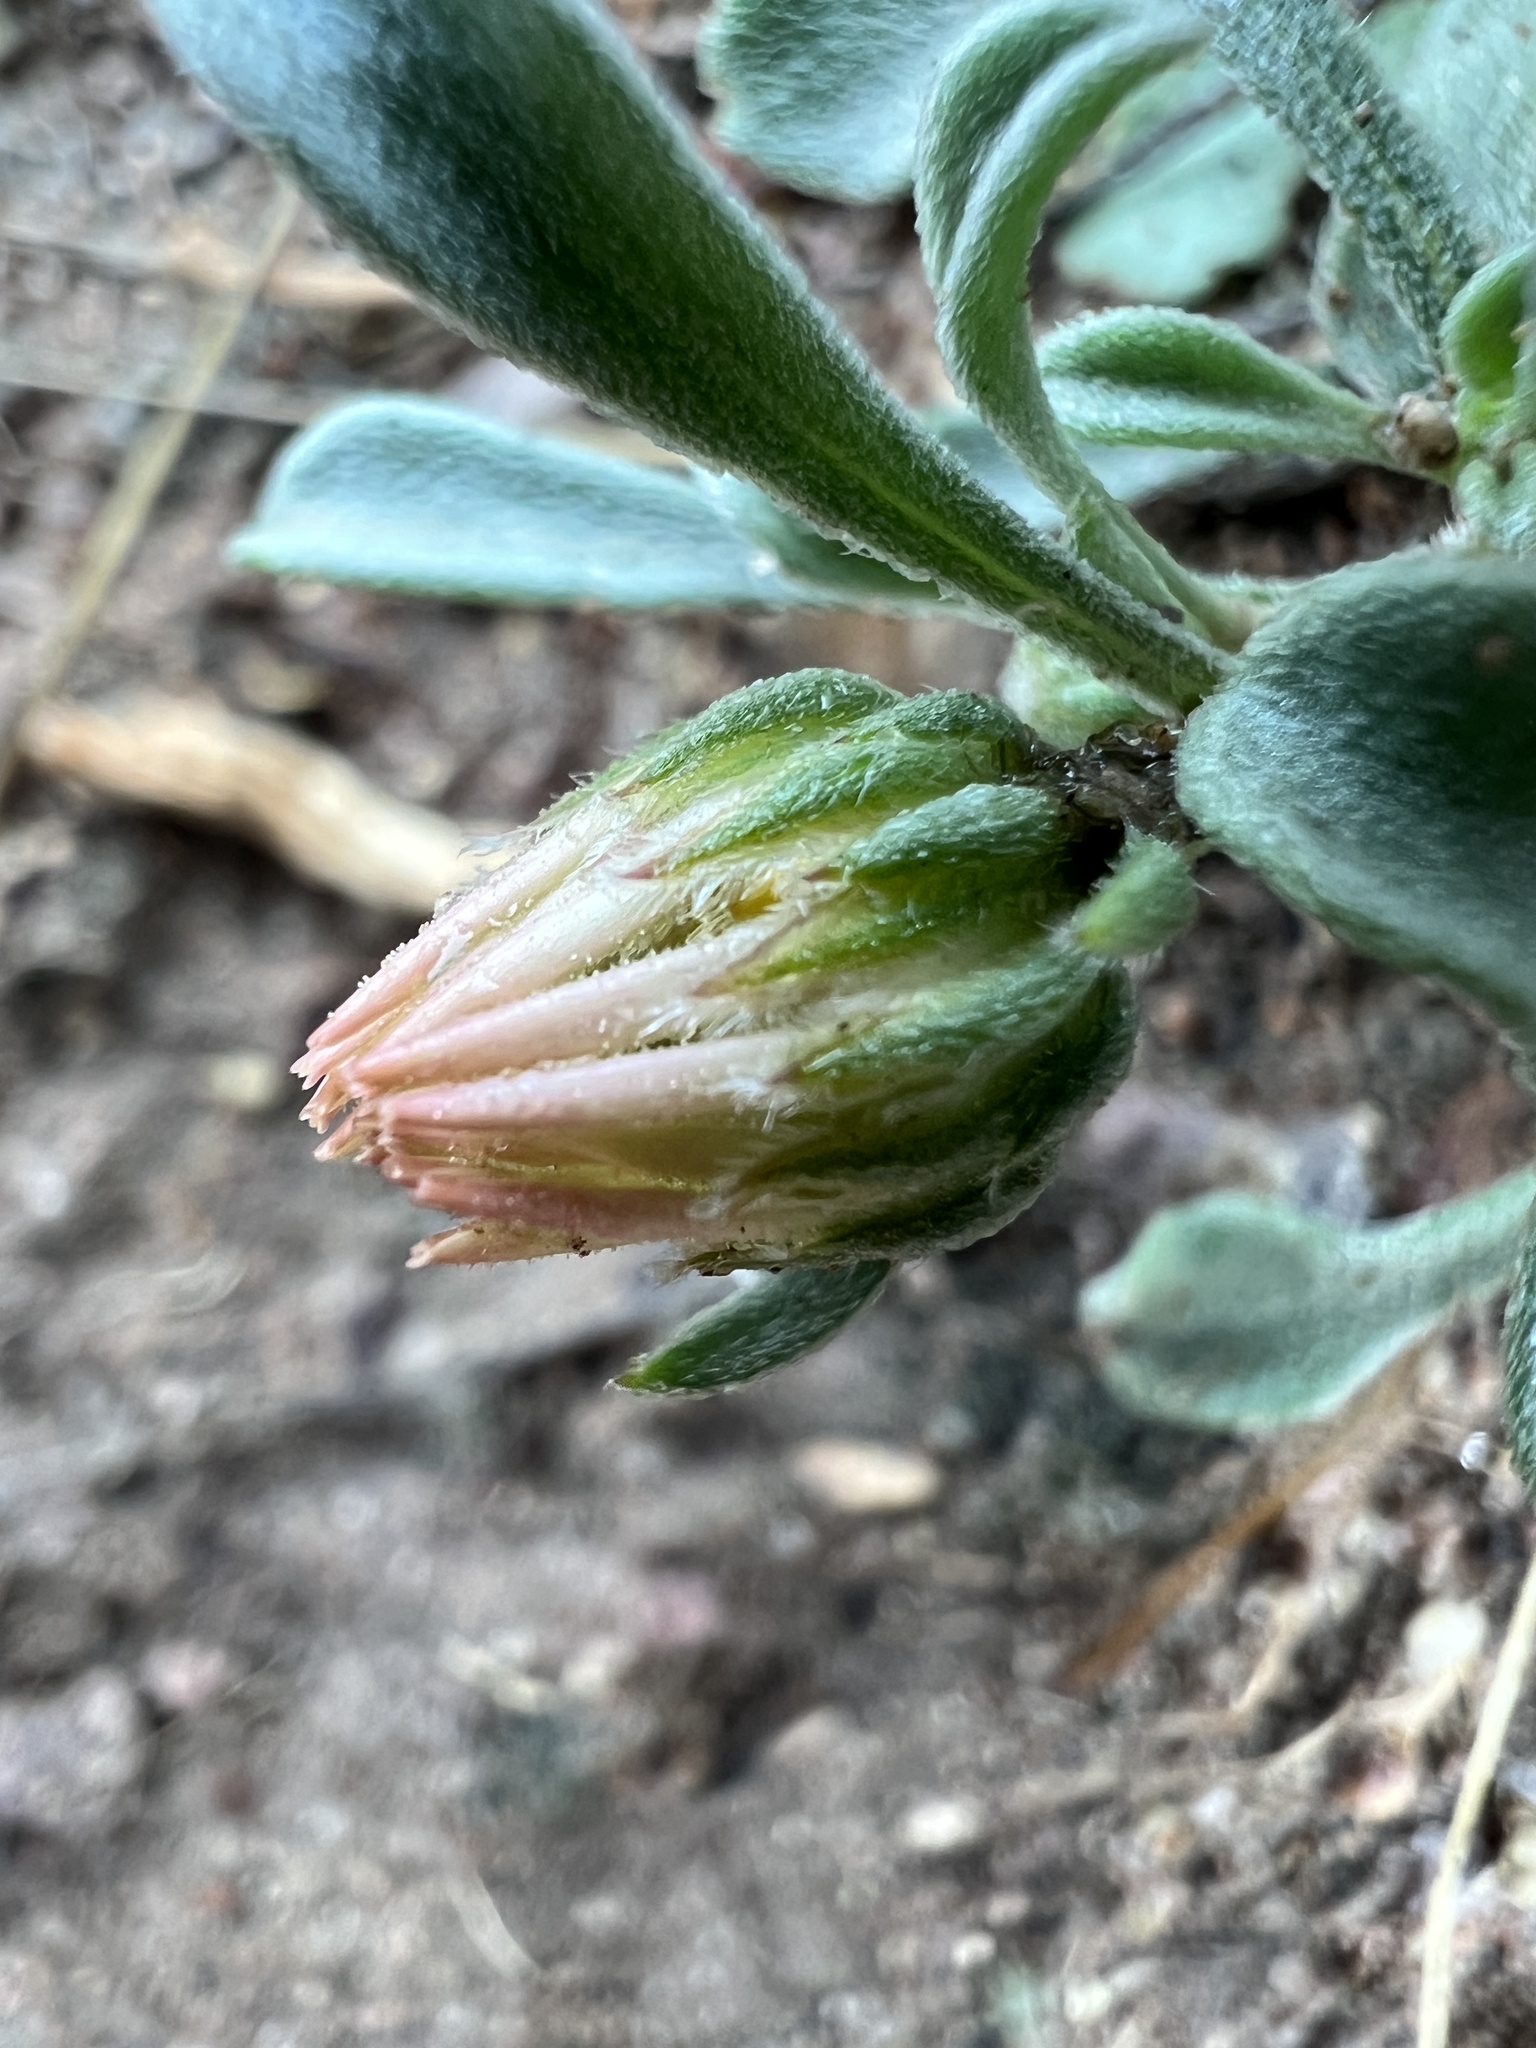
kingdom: Plantae
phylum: Tracheophyta
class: Magnoliopsida
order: Asterales
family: Asteraceae
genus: Townsendia
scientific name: Townsendia florifera
